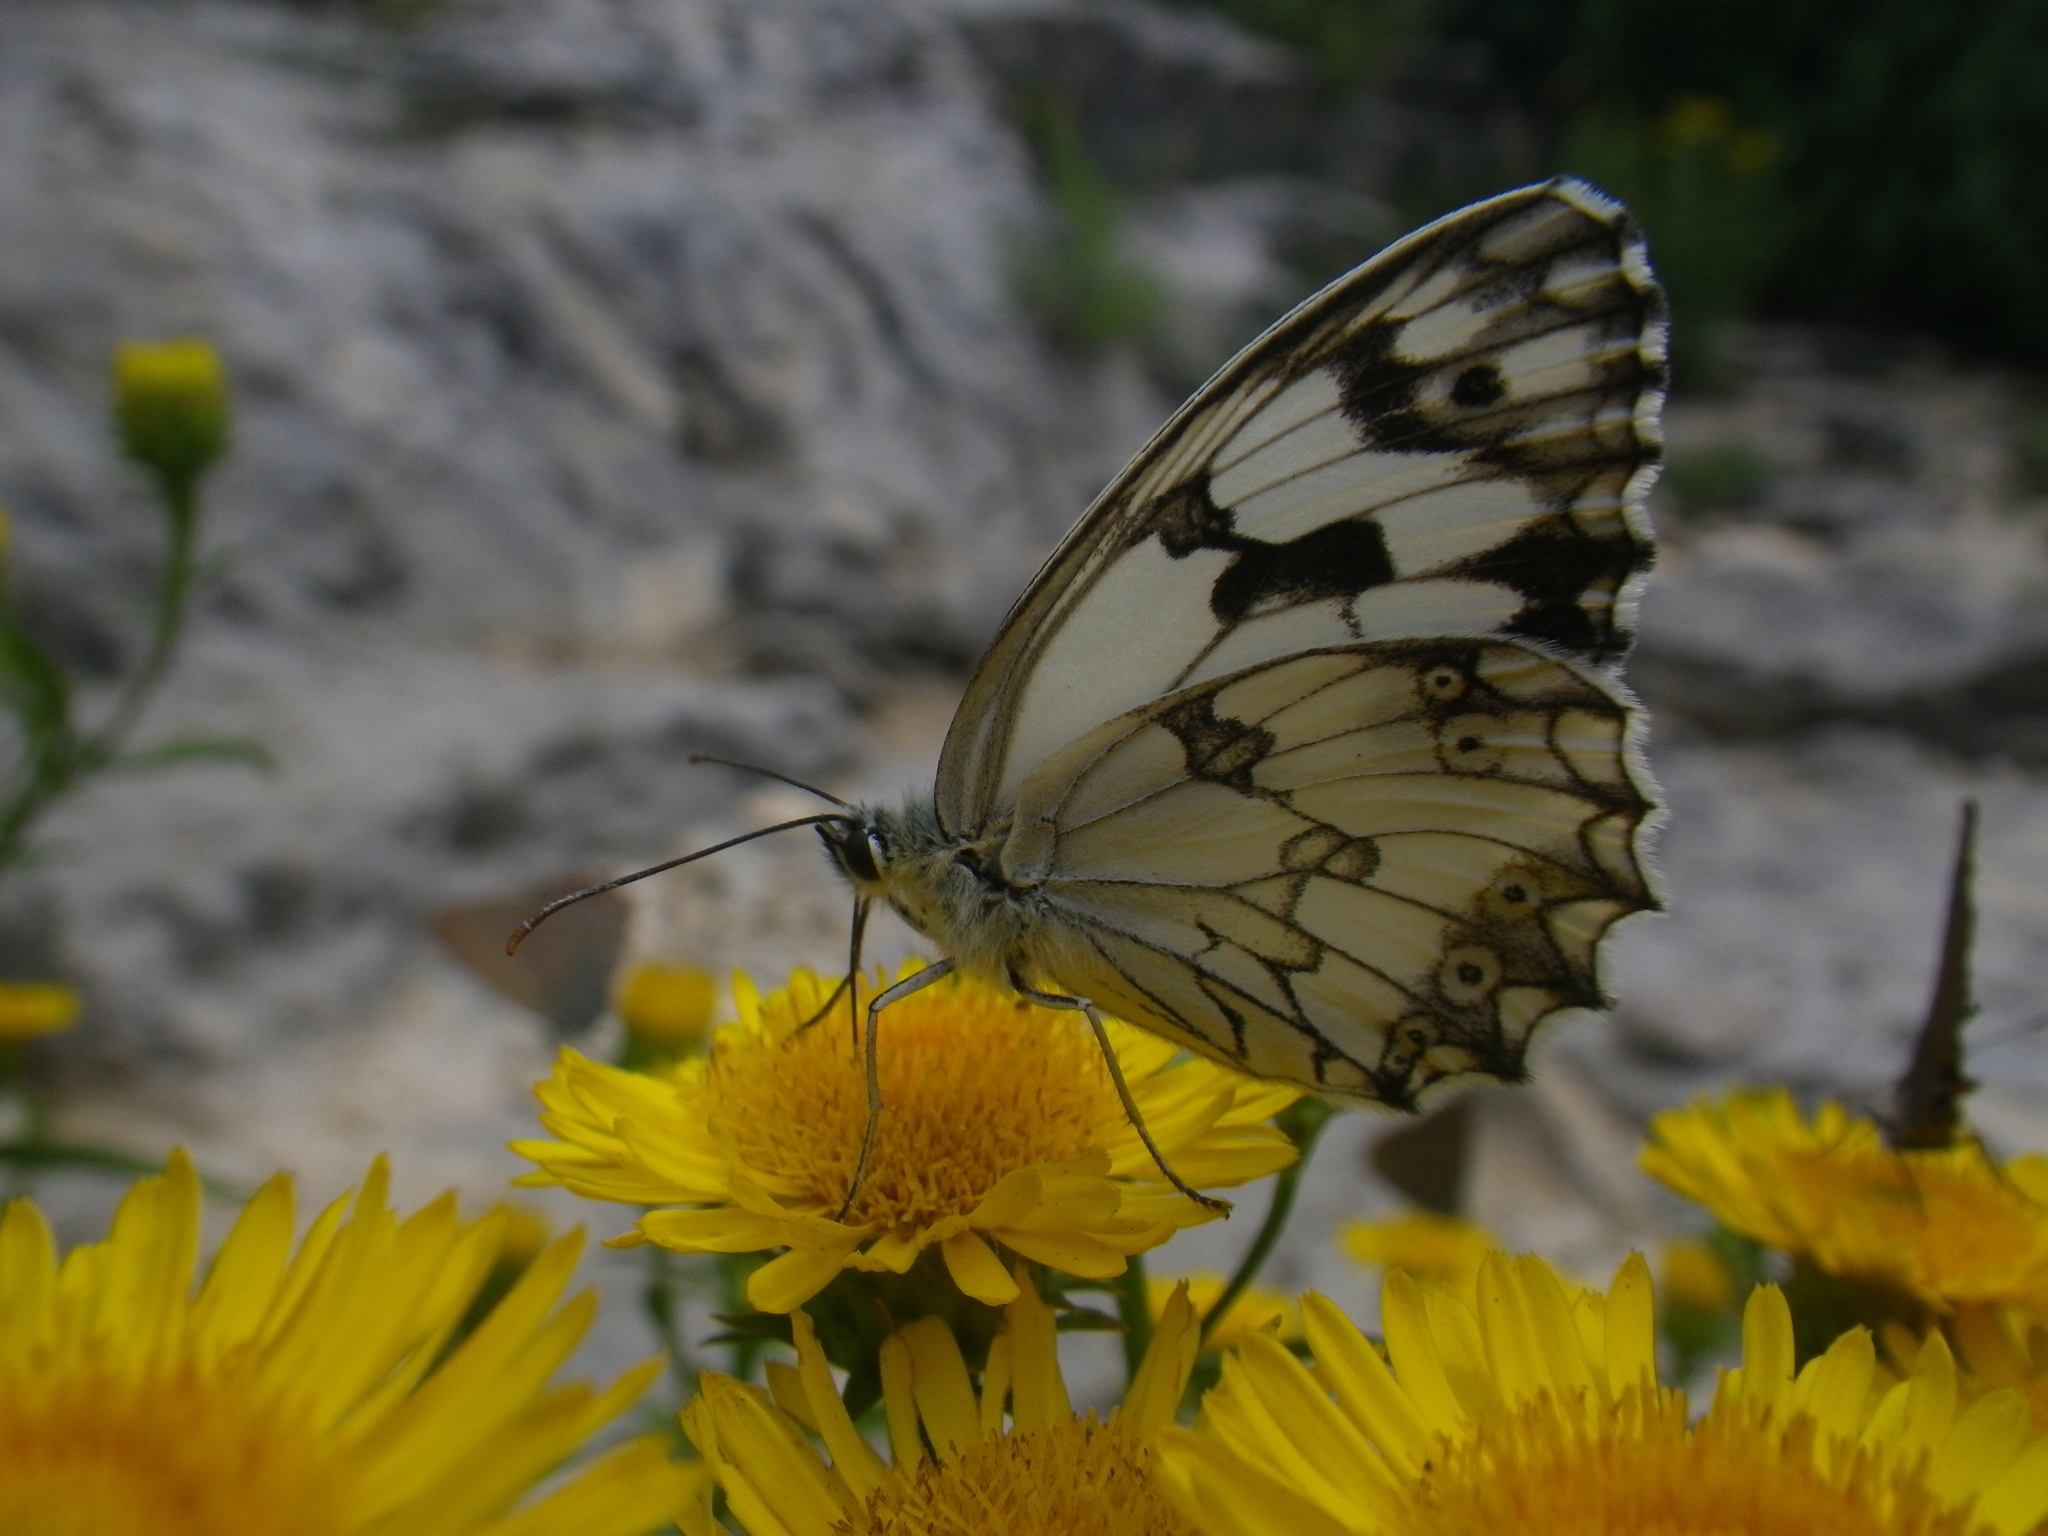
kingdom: Animalia
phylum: Arthropoda
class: Insecta
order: Lepidoptera
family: Nymphalidae
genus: Melanargia
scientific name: Melanargia lachesis
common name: Iberian marbled white
